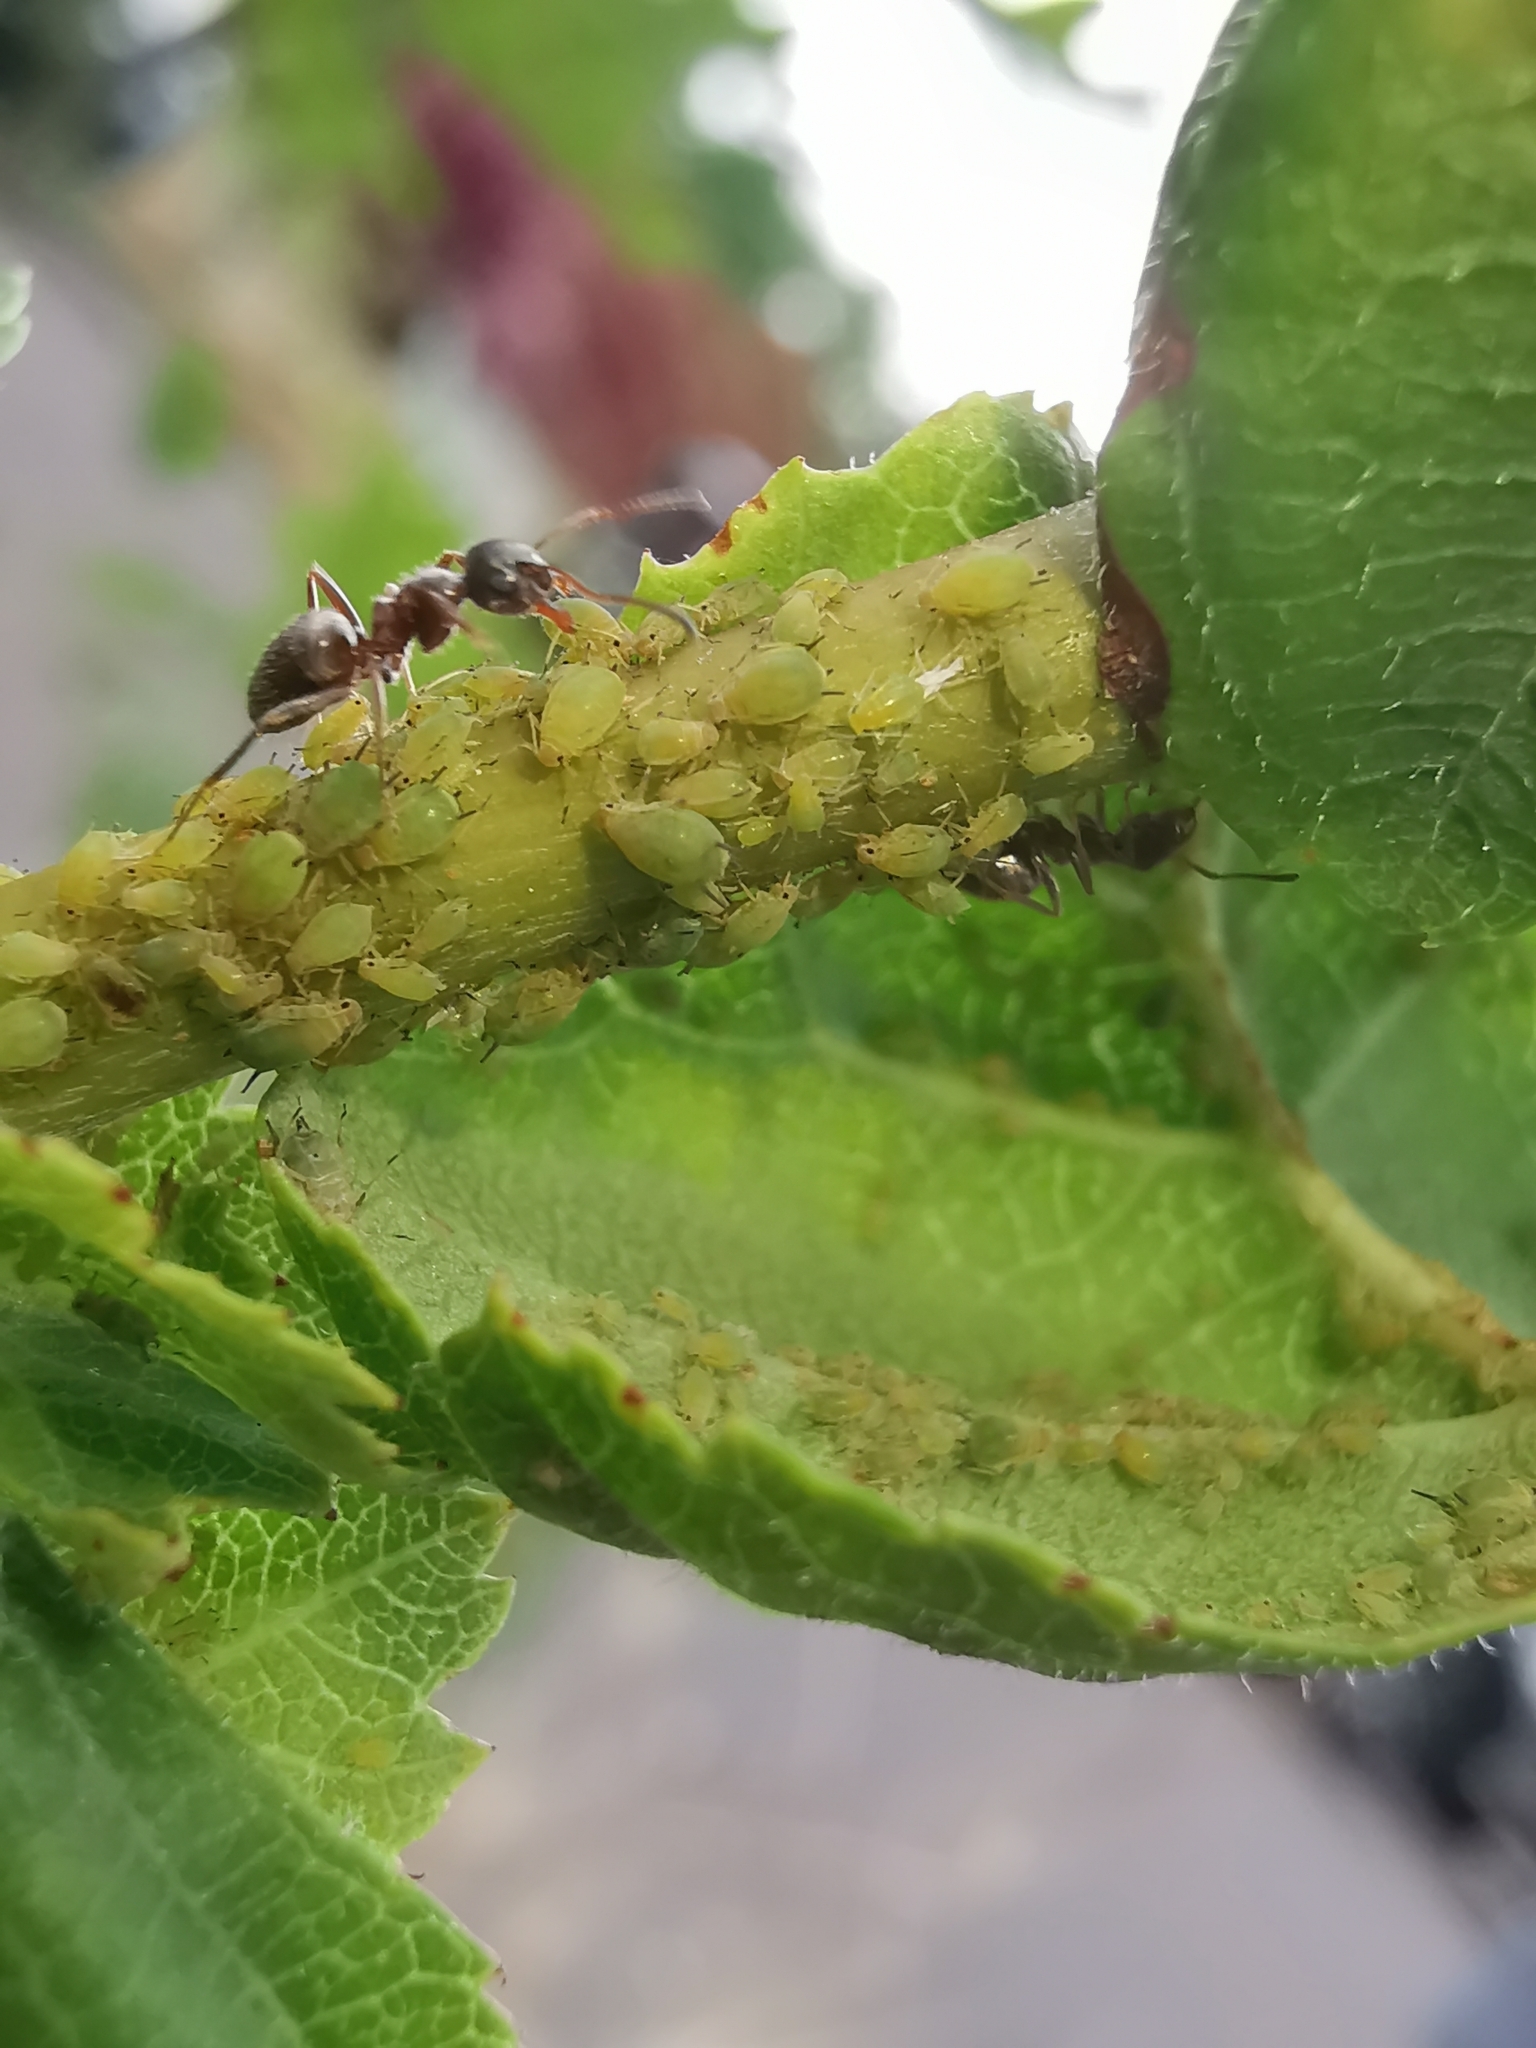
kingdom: Animalia
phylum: Arthropoda
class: Insecta
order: Hemiptera
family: Aphididae
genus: Aphis
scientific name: Aphis
